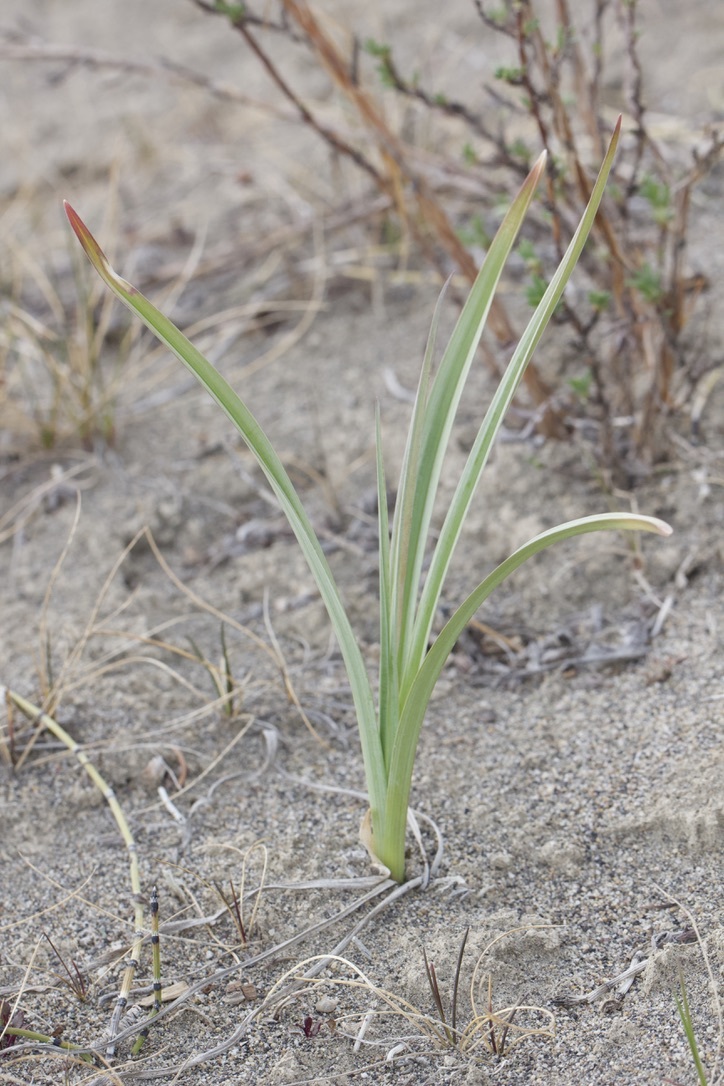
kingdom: Plantae
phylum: Tracheophyta
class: Liliopsida
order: Liliales
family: Melanthiaceae
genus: Anticlea
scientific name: Anticlea elegans
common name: Mountain death camas
